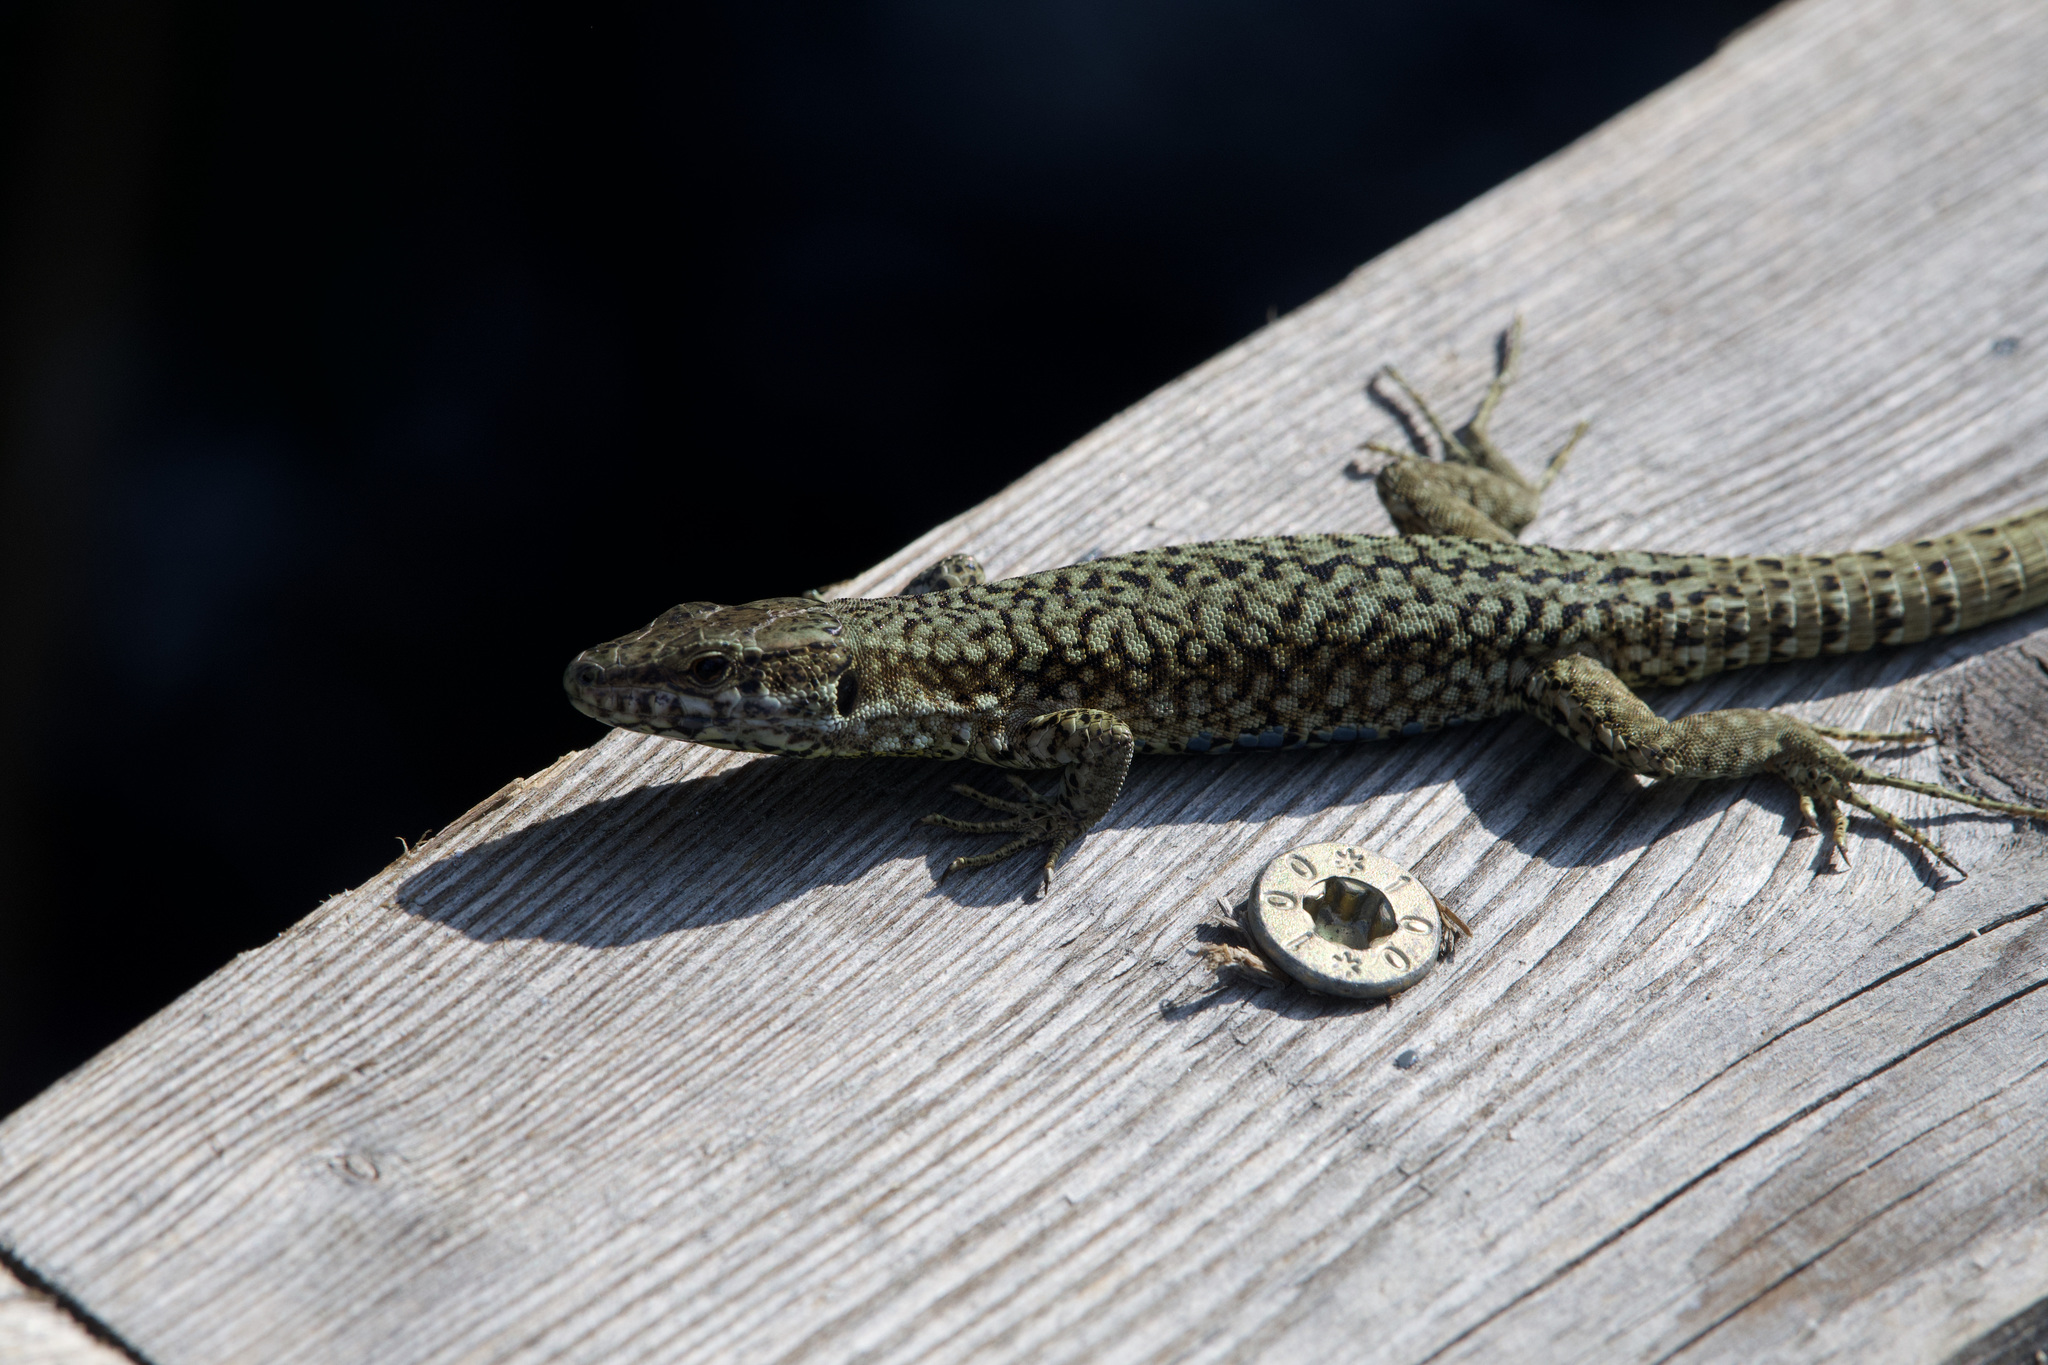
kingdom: Animalia
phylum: Chordata
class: Squamata
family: Lacertidae
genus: Podarcis
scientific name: Podarcis muralis
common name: Common wall lizard
